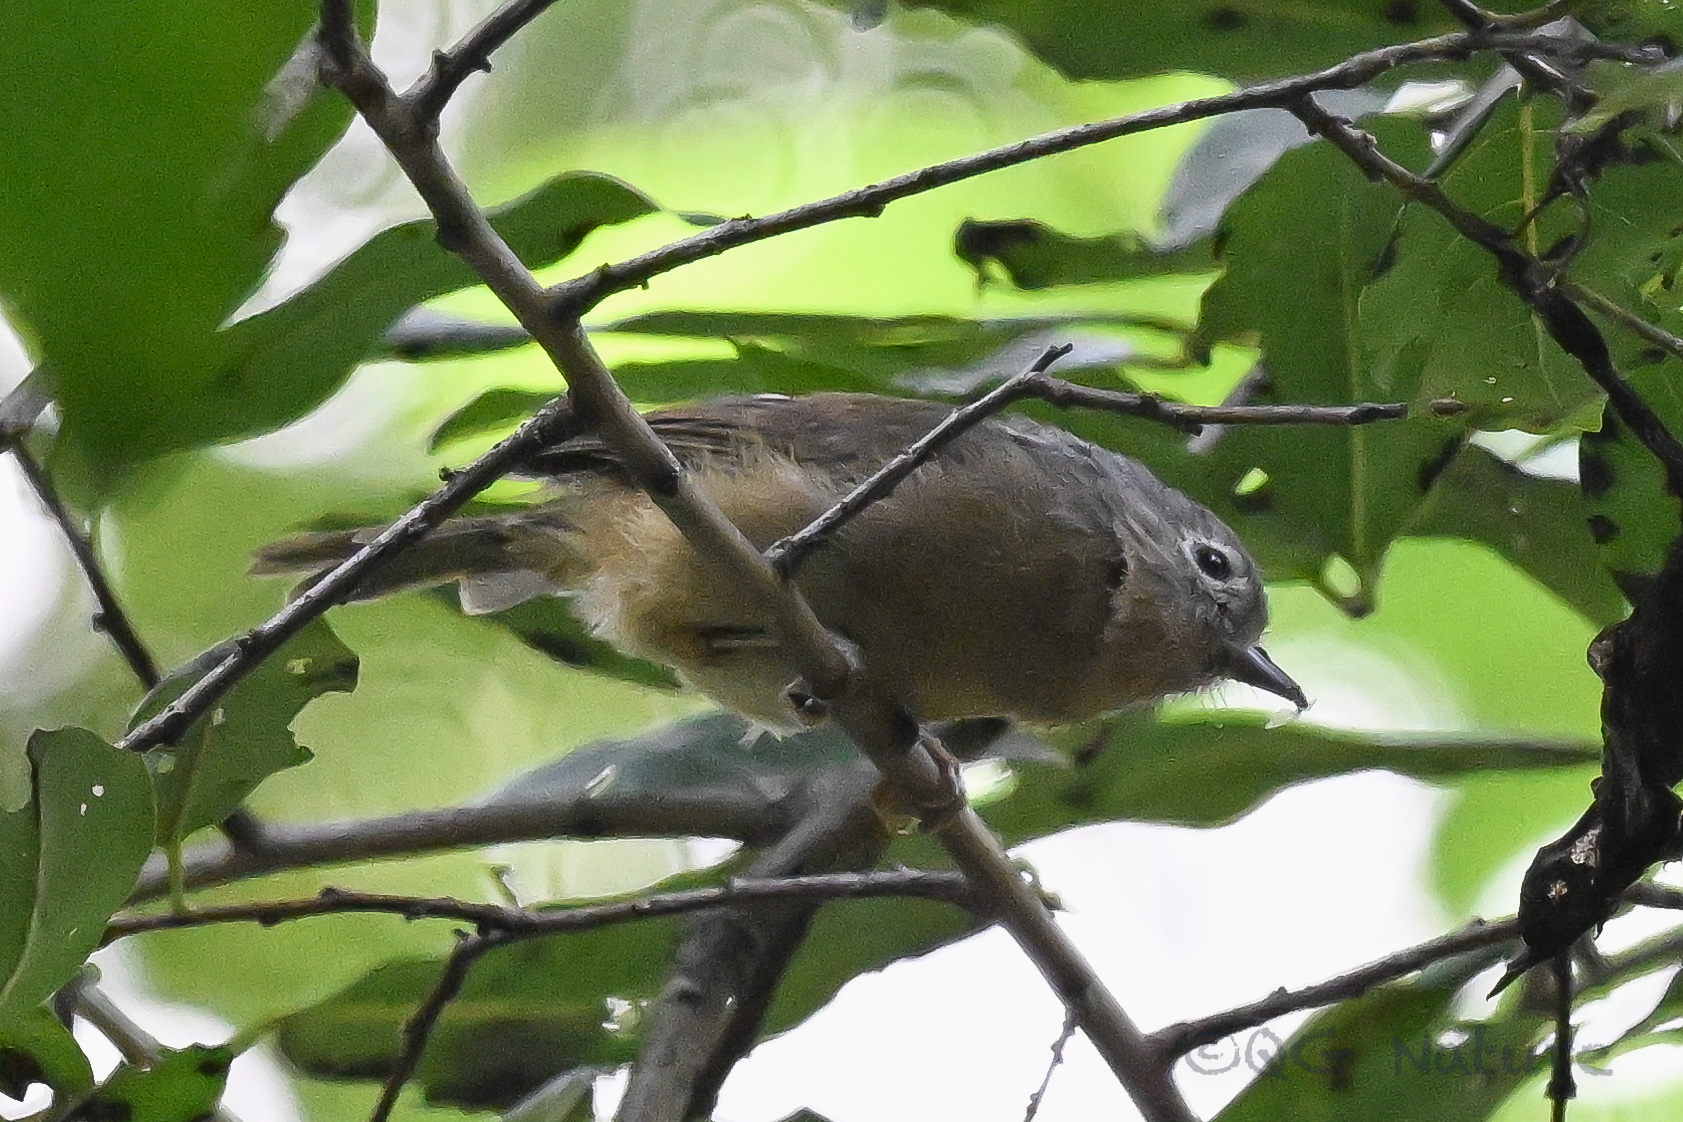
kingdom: Animalia
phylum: Chordata
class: Aves
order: Passeriformes
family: Pellorneidae
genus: Alcippe
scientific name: Alcippe fratercula
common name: Yunnan fulvetta
